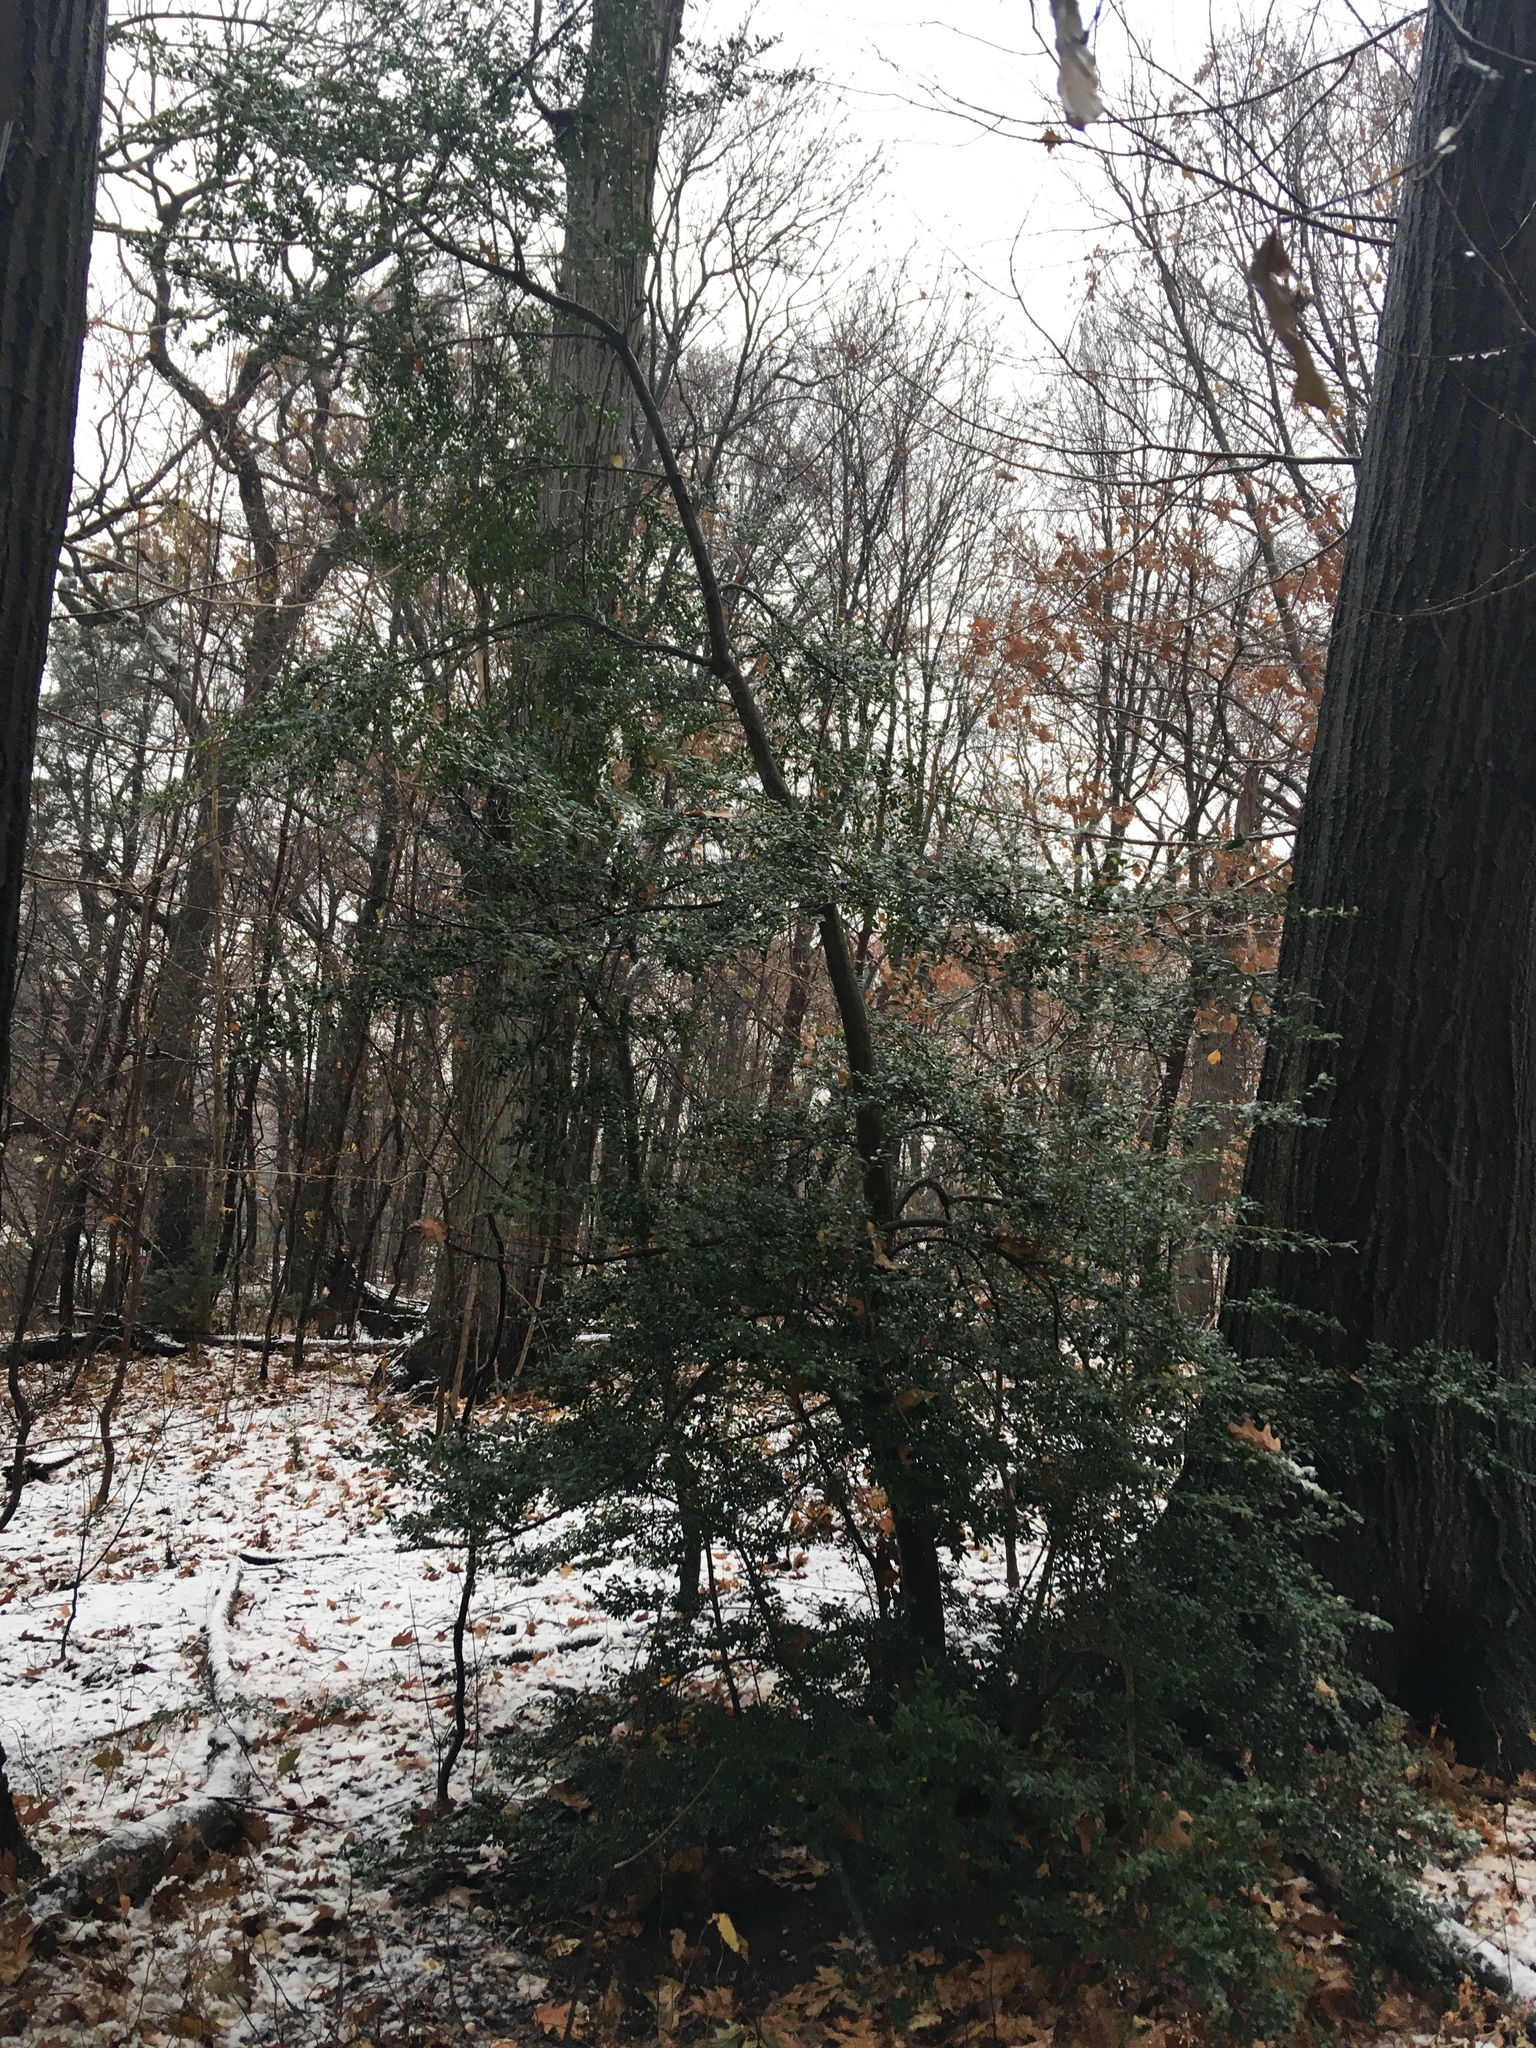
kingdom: Plantae
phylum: Tracheophyta
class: Magnoliopsida
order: Aquifoliales
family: Aquifoliaceae
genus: Ilex
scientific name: Ilex crenata
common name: Japanese holly
